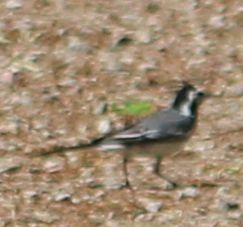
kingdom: Animalia
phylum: Chordata
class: Aves
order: Passeriformes
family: Motacillidae
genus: Motacilla
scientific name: Motacilla alba
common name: White wagtail
